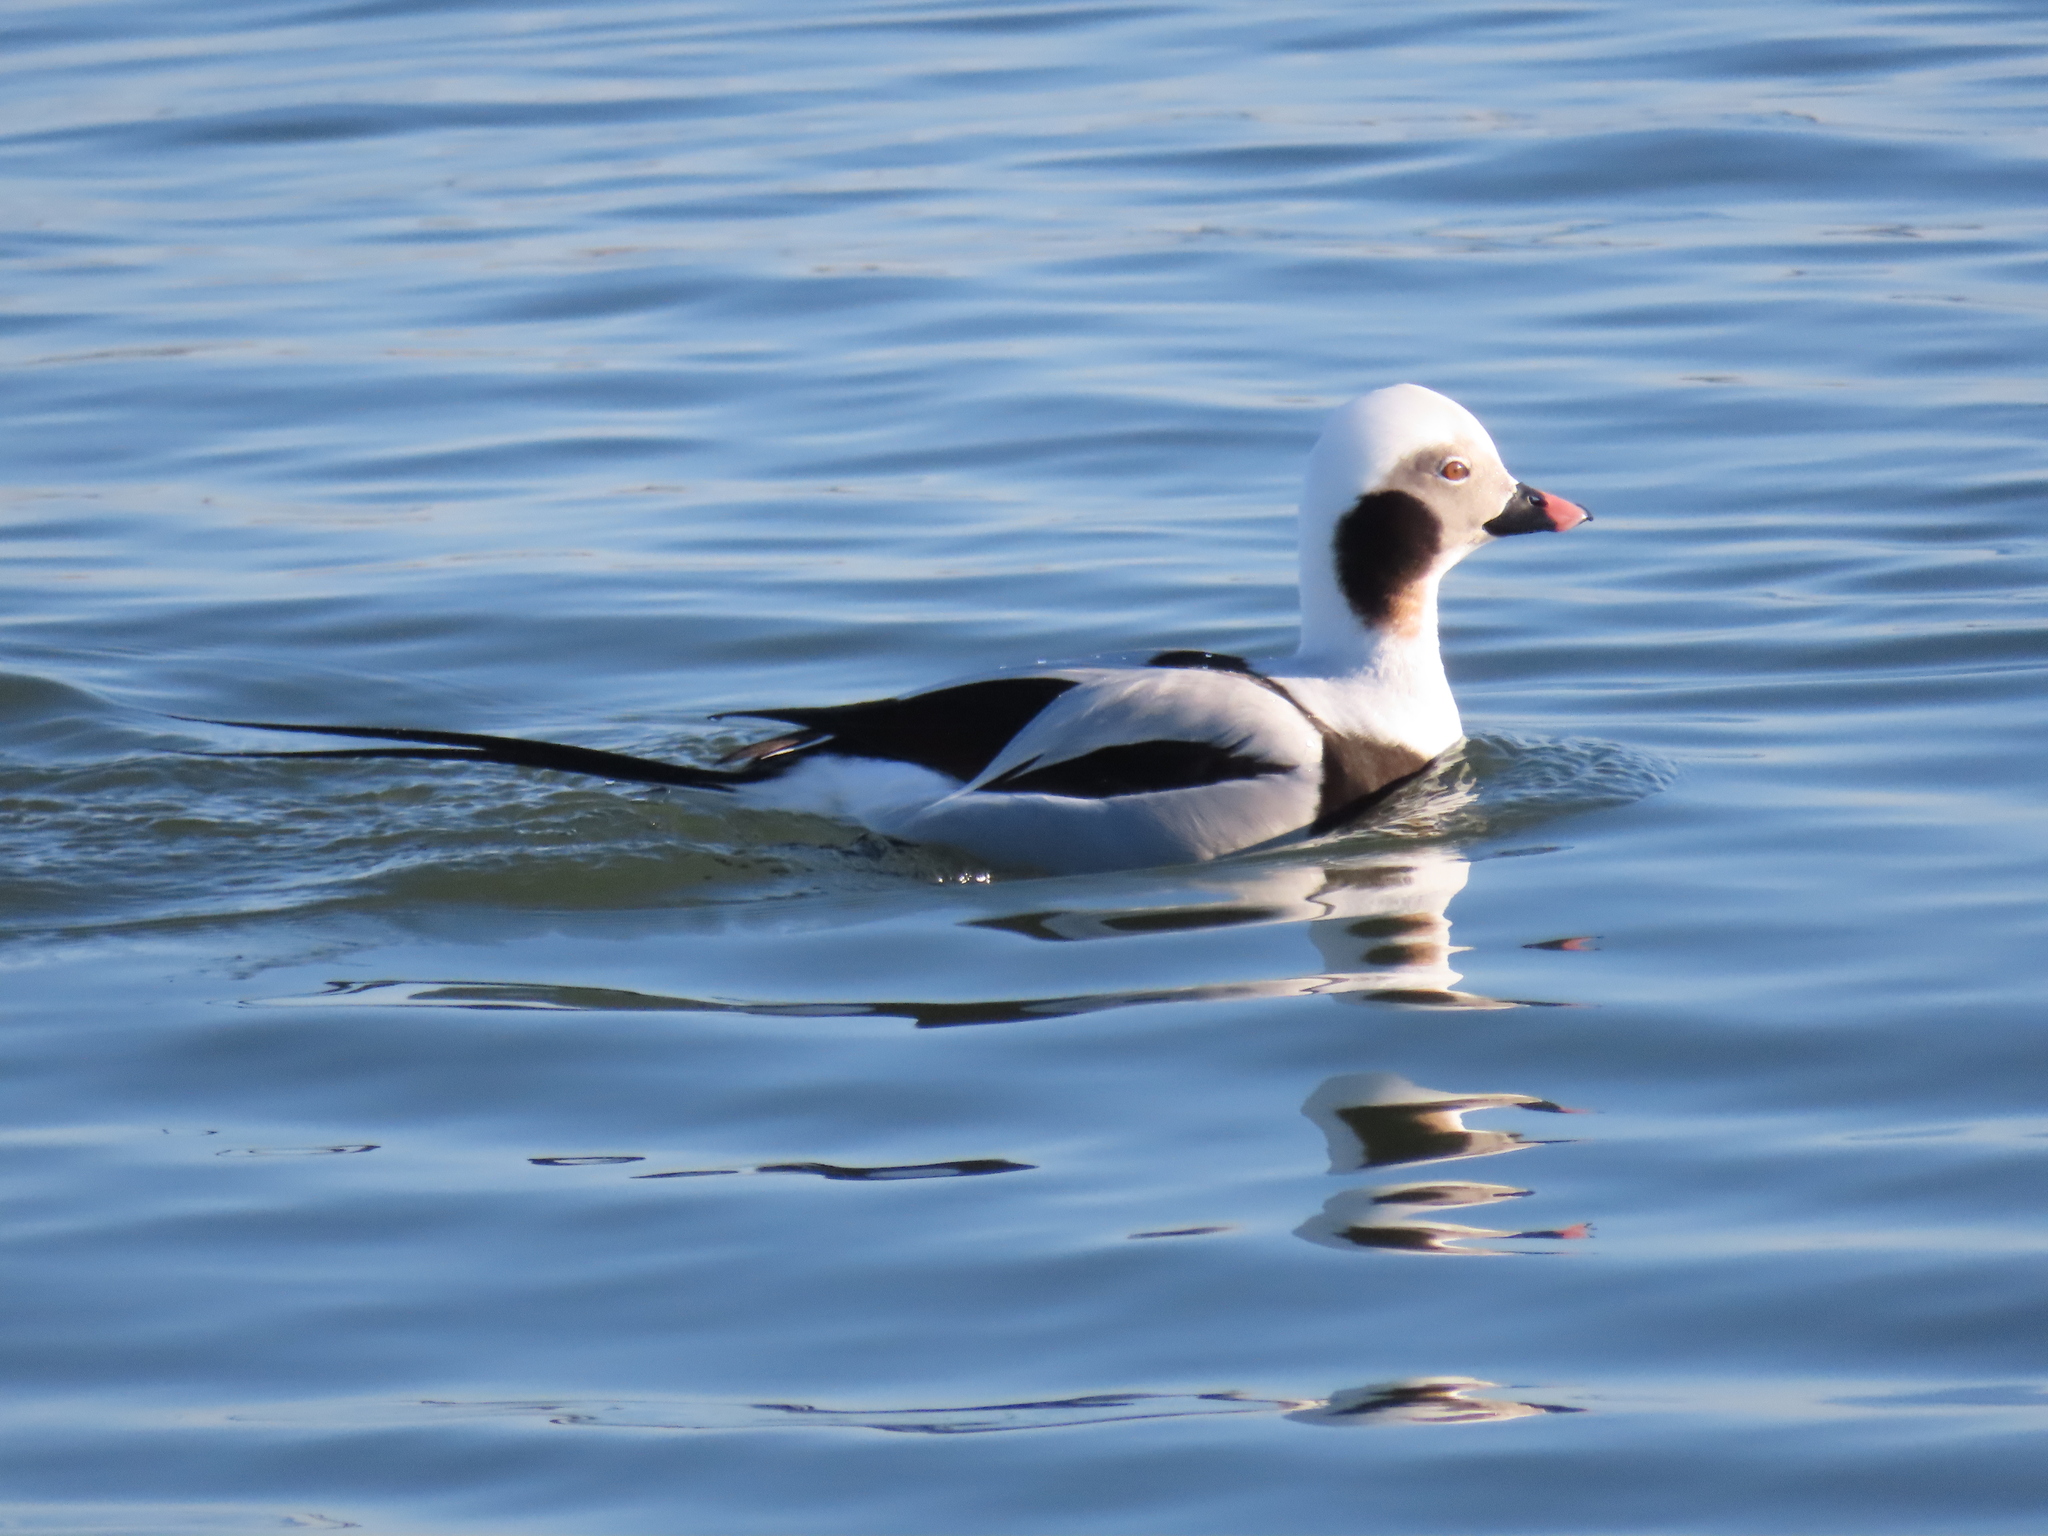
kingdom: Animalia
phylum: Chordata
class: Aves
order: Anseriformes
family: Anatidae
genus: Clangula
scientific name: Clangula hyemalis
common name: Long-tailed duck
